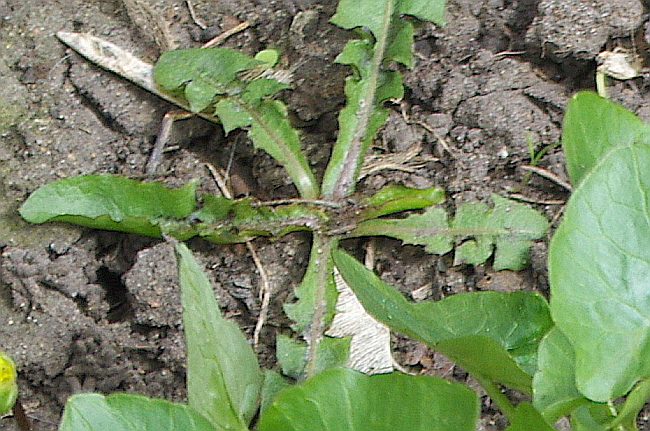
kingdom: Plantae
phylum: Tracheophyta
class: Magnoliopsida
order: Asterales
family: Asteraceae
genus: Taraxacum
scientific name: Taraxacum officinale
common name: Common dandelion
